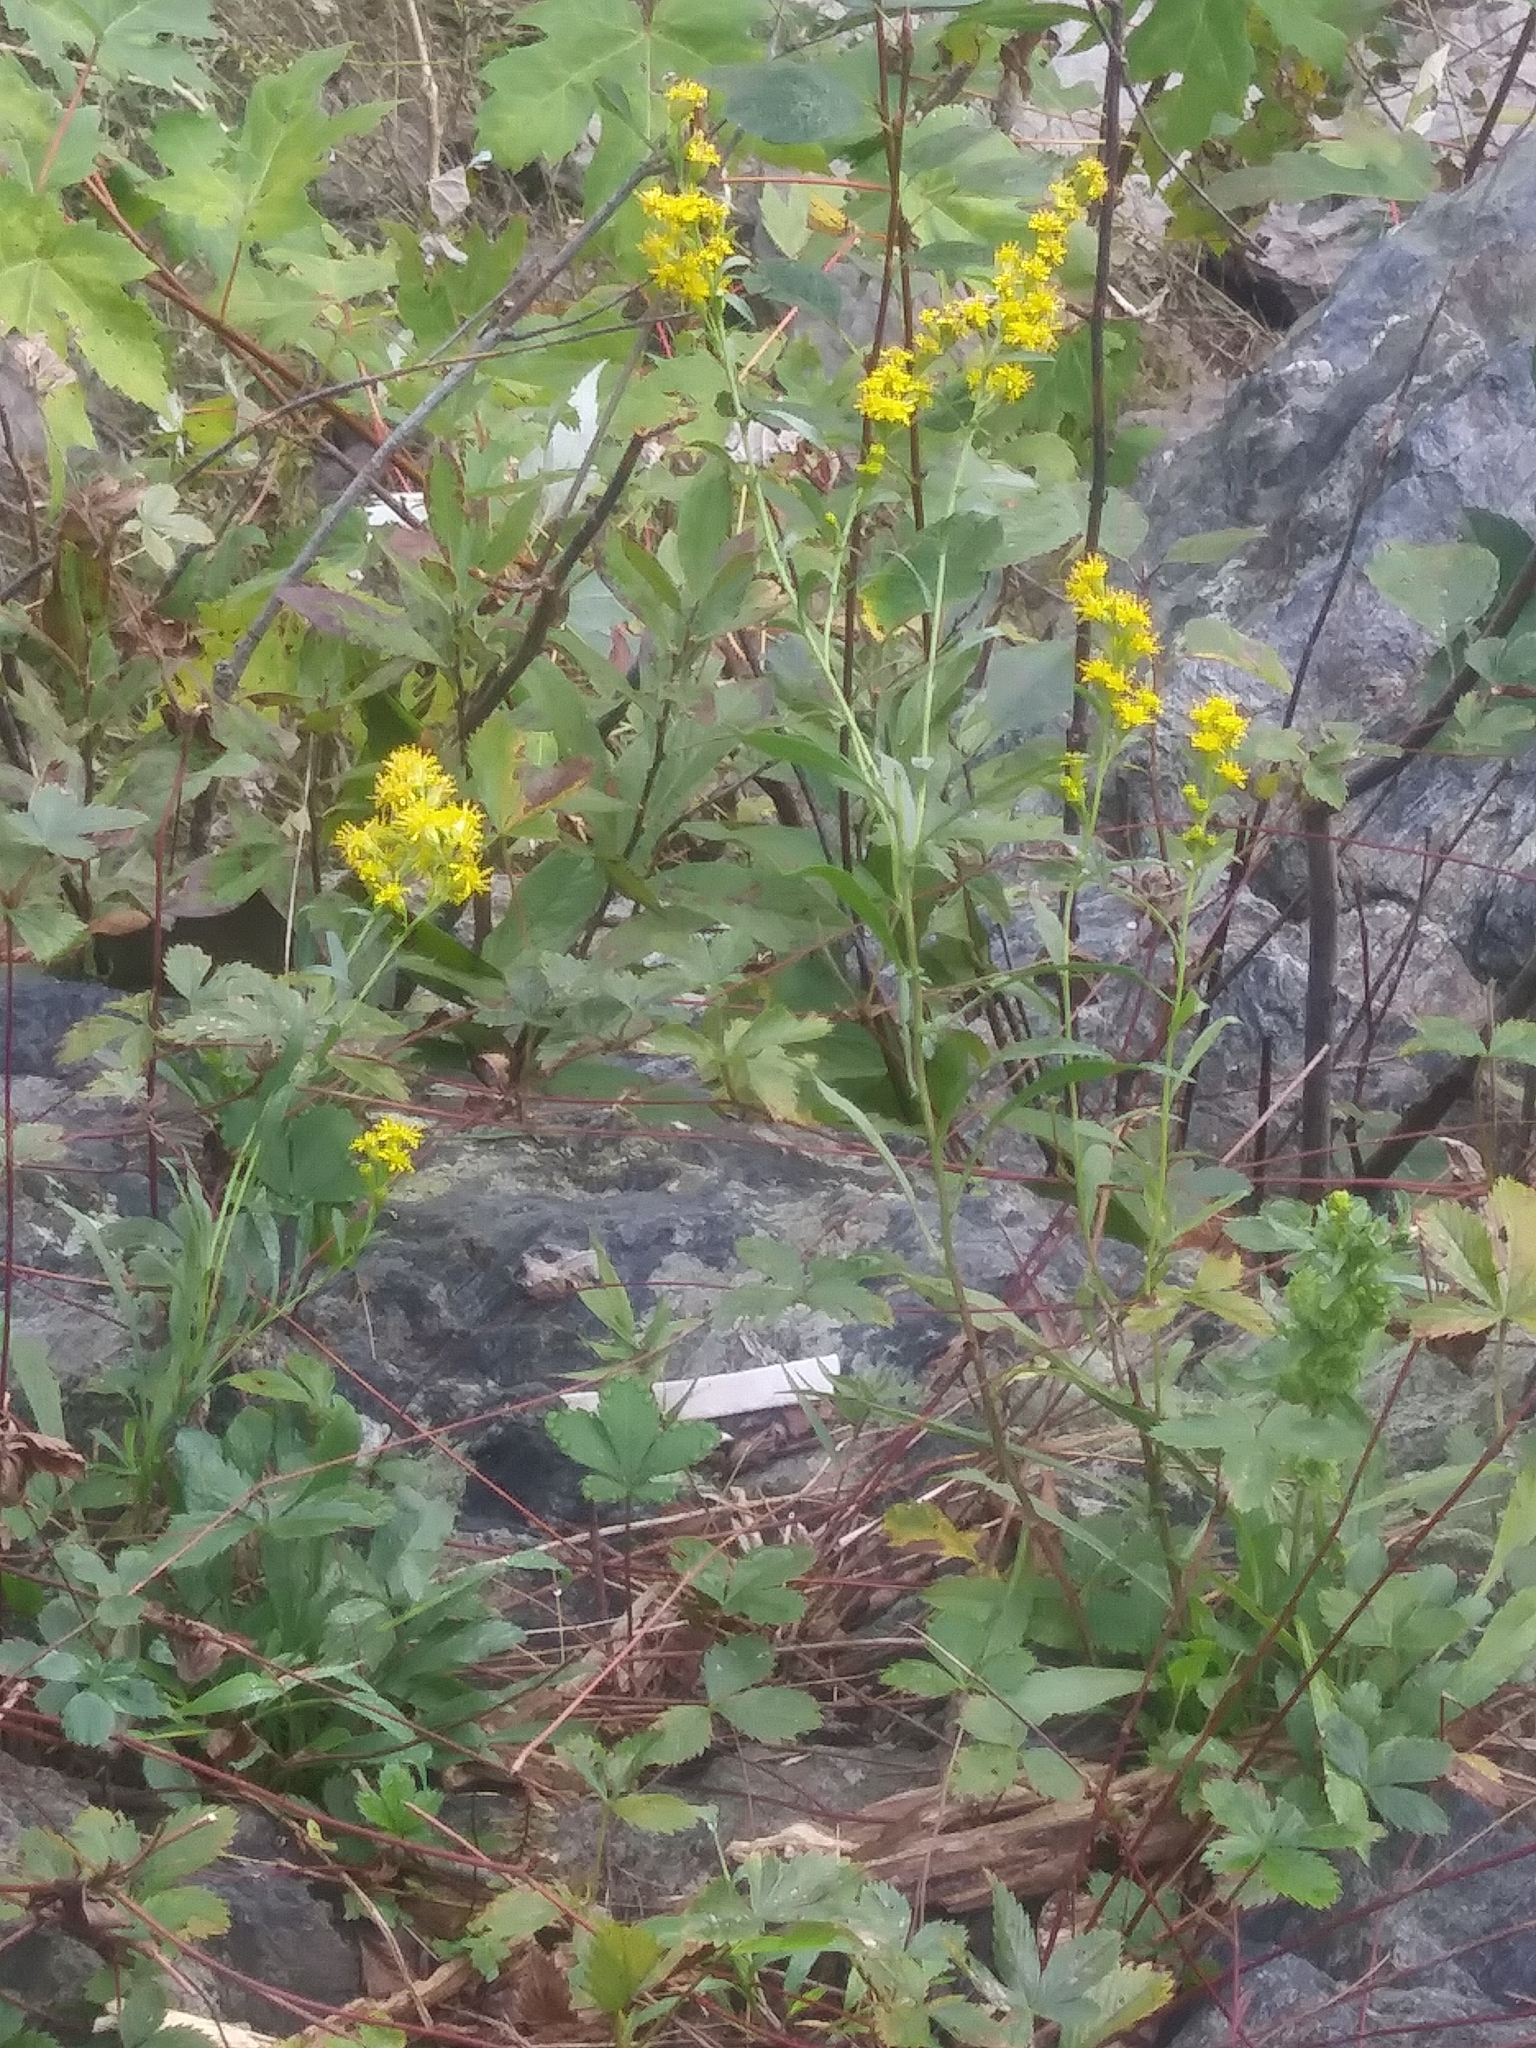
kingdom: Plantae
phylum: Tracheophyta
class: Magnoliopsida
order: Asterales
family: Asteraceae
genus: Solidago
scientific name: Solidago racemosa
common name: Lake ontario goldenrod
